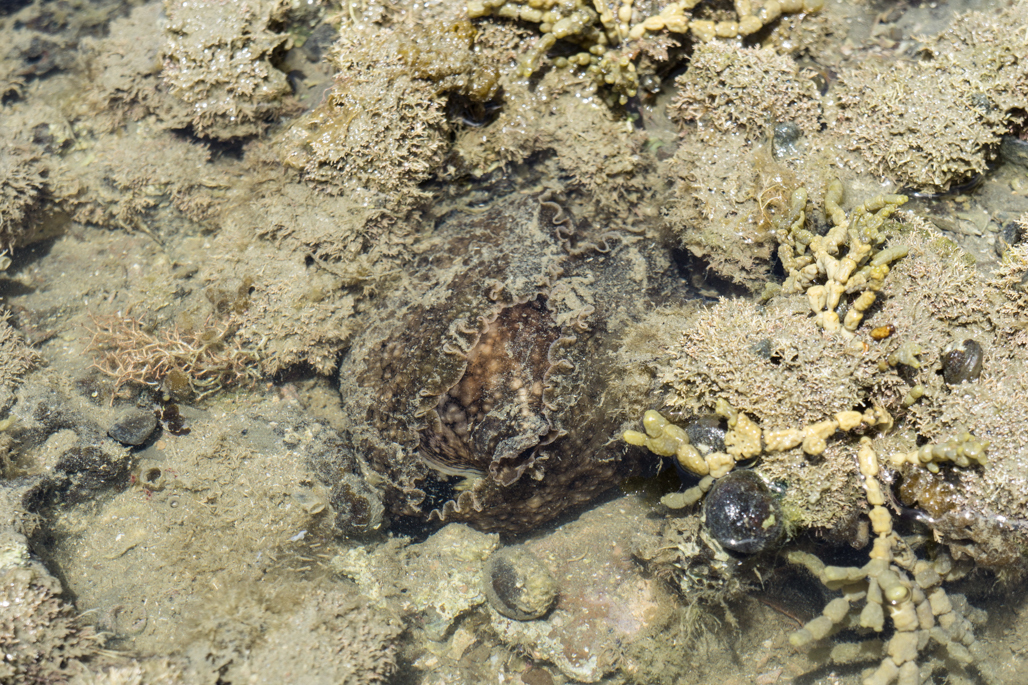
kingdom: Animalia
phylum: Mollusca
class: Gastropoda
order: Aplysiida
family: Aplysiidae
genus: Aplysia
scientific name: Aplysia argus
